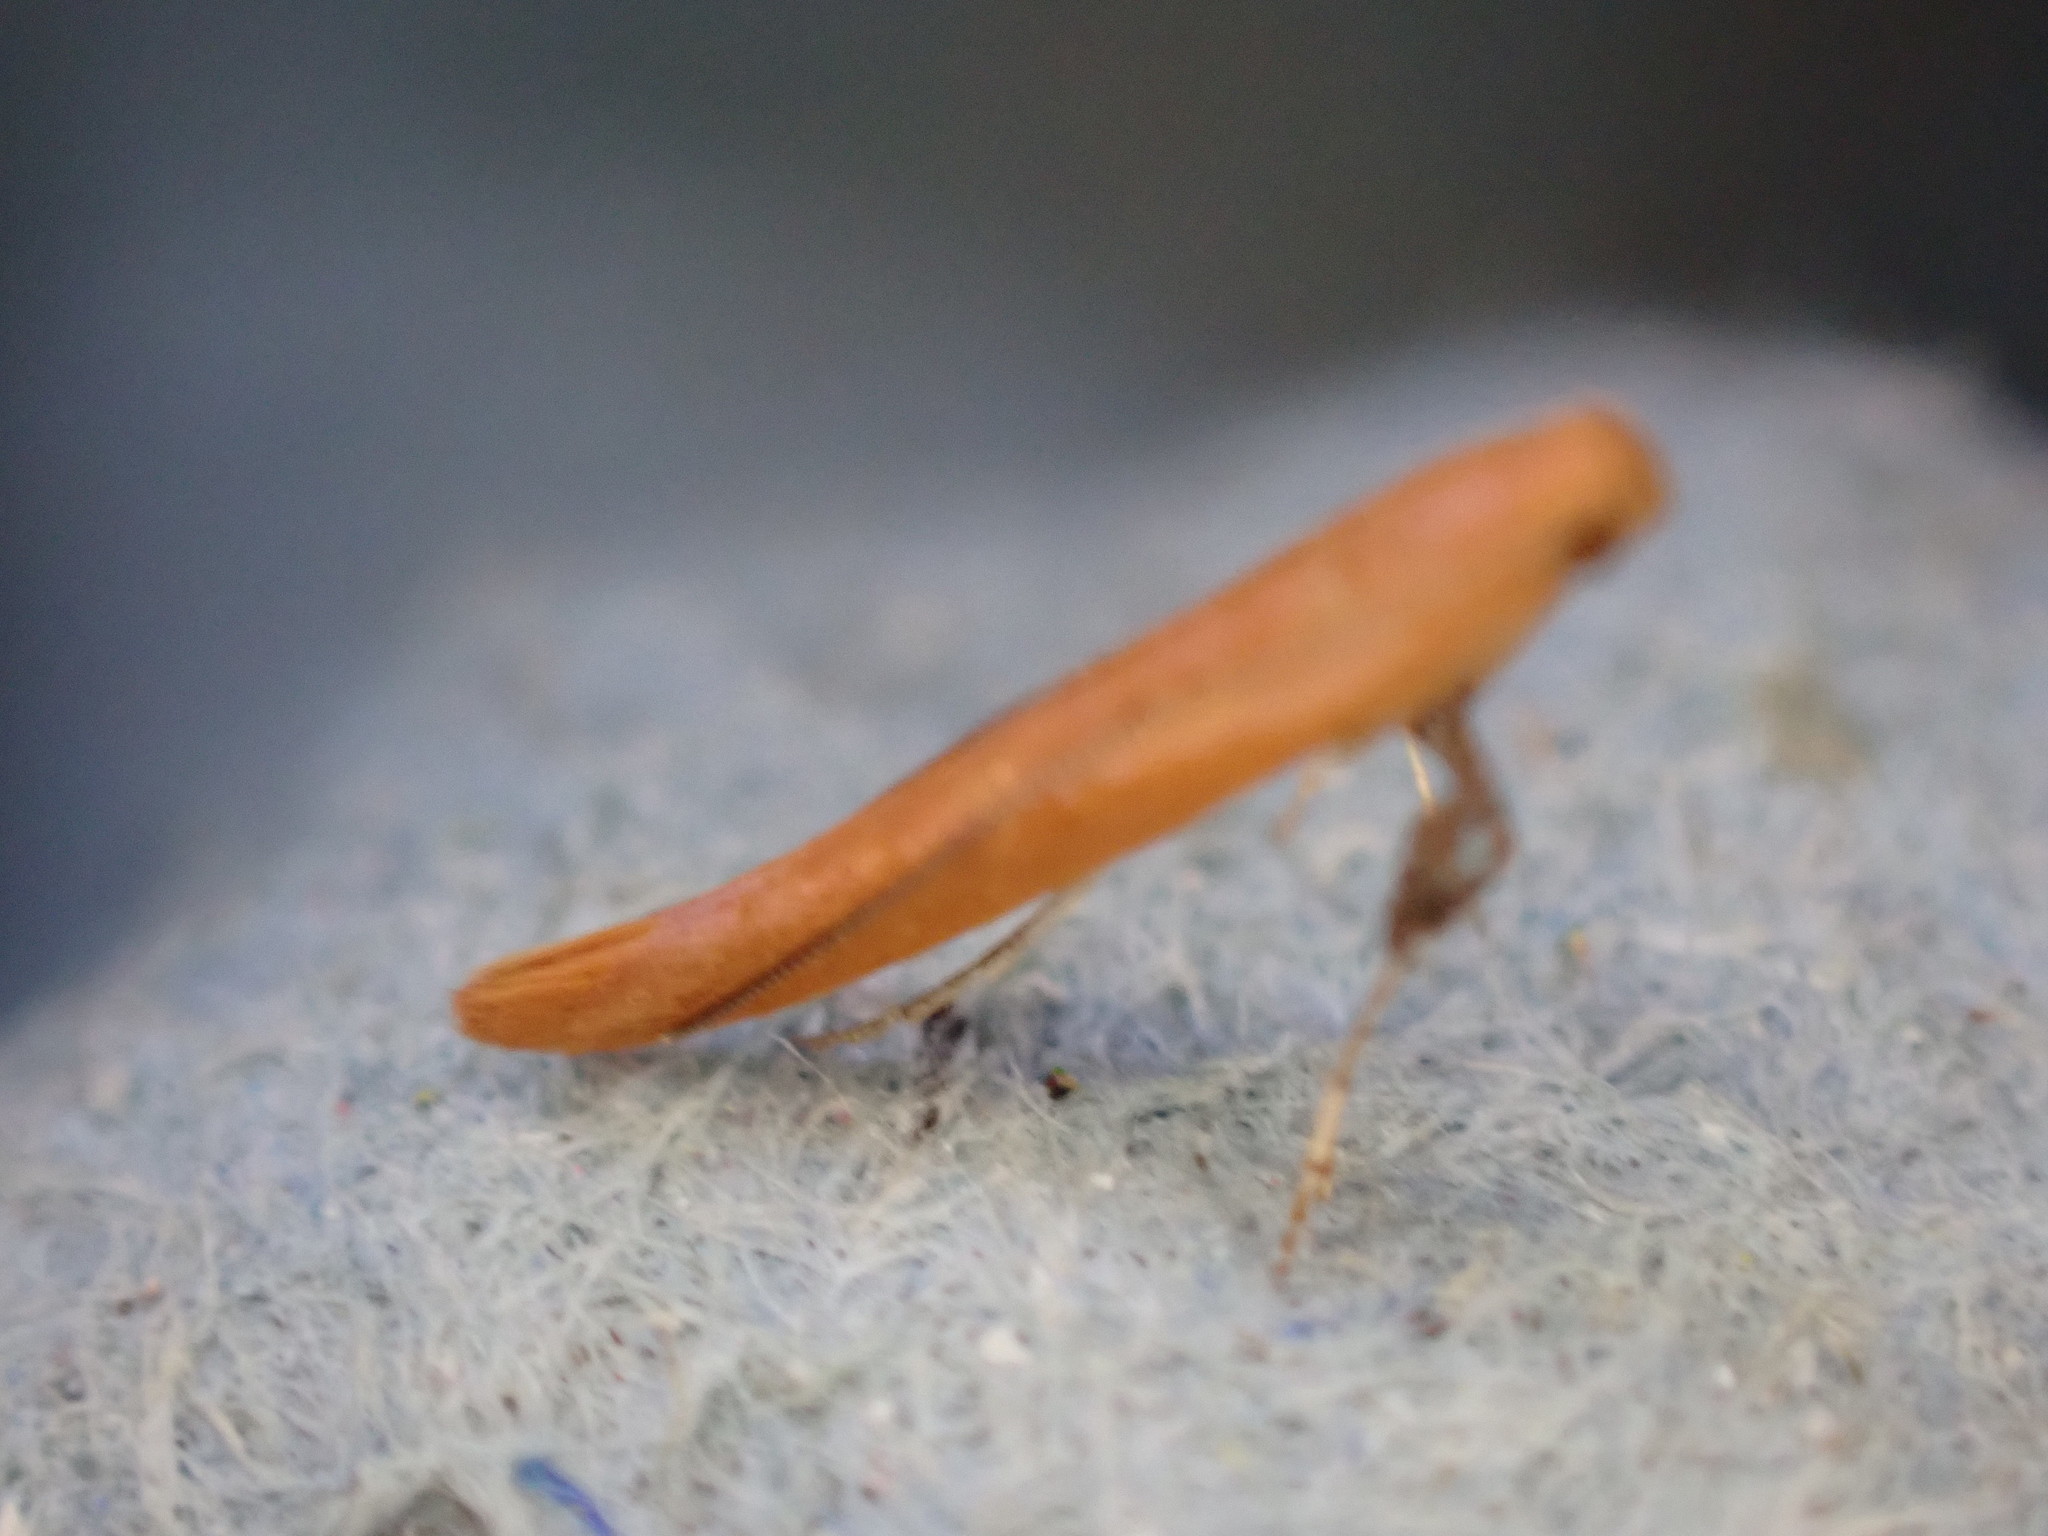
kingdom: Animalia
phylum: Arthropoda
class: Insecta
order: Lepidoptera
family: Gracillariidae
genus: Caloptilia
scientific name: Caloptilia elongella
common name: Pale red slender
